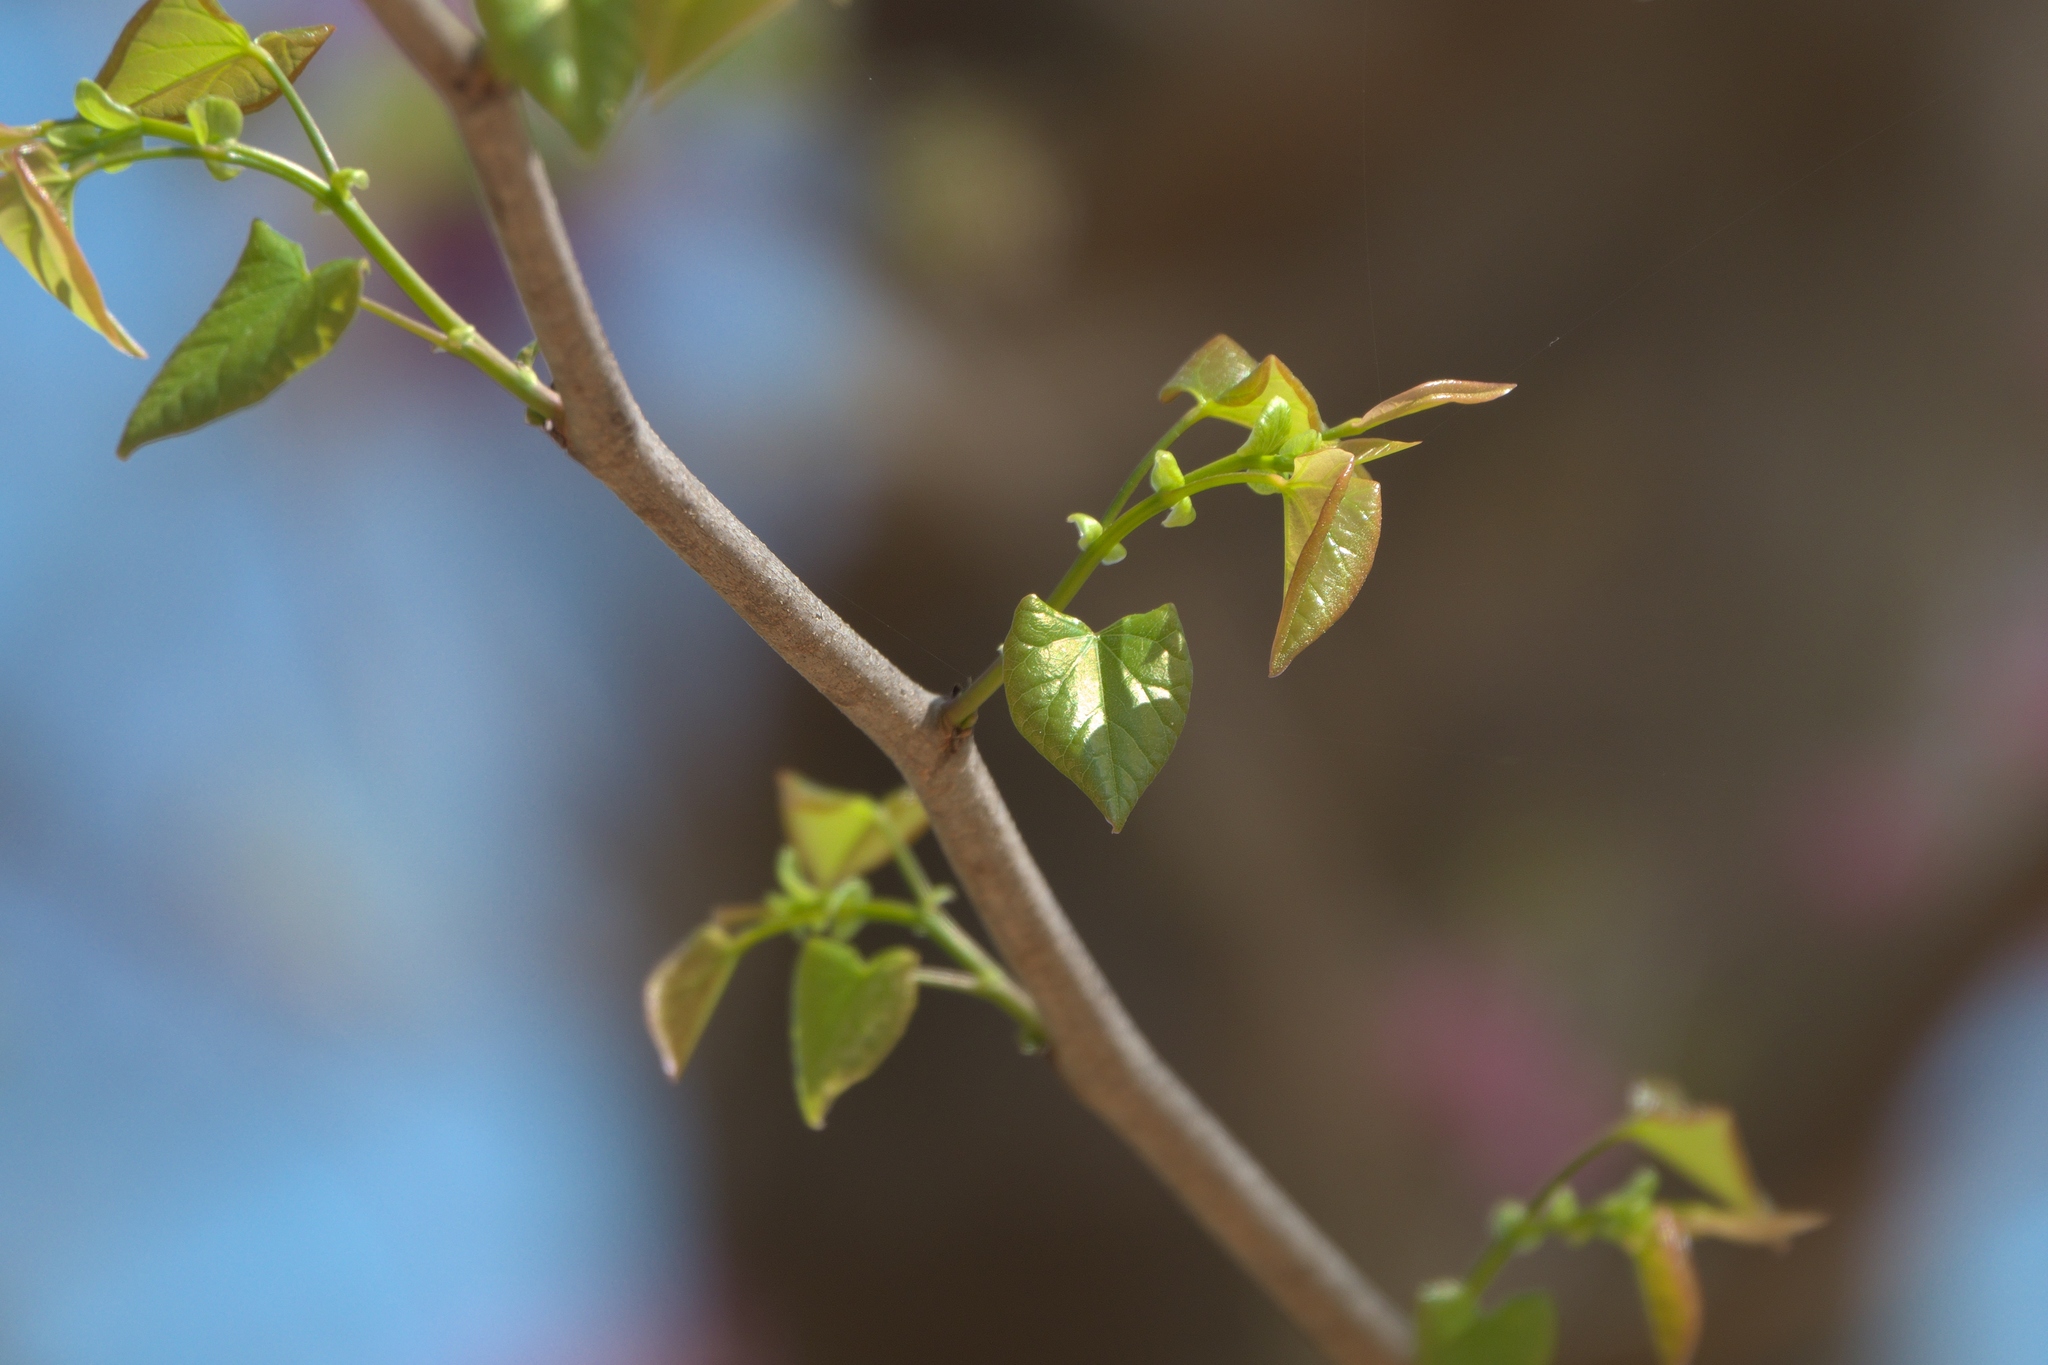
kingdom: Plantae
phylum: Tracheophyta
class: Magnoliopsida
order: Fabales
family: Fabaceae
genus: Cercis
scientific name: Cercis canadensis
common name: Eastern redbud
